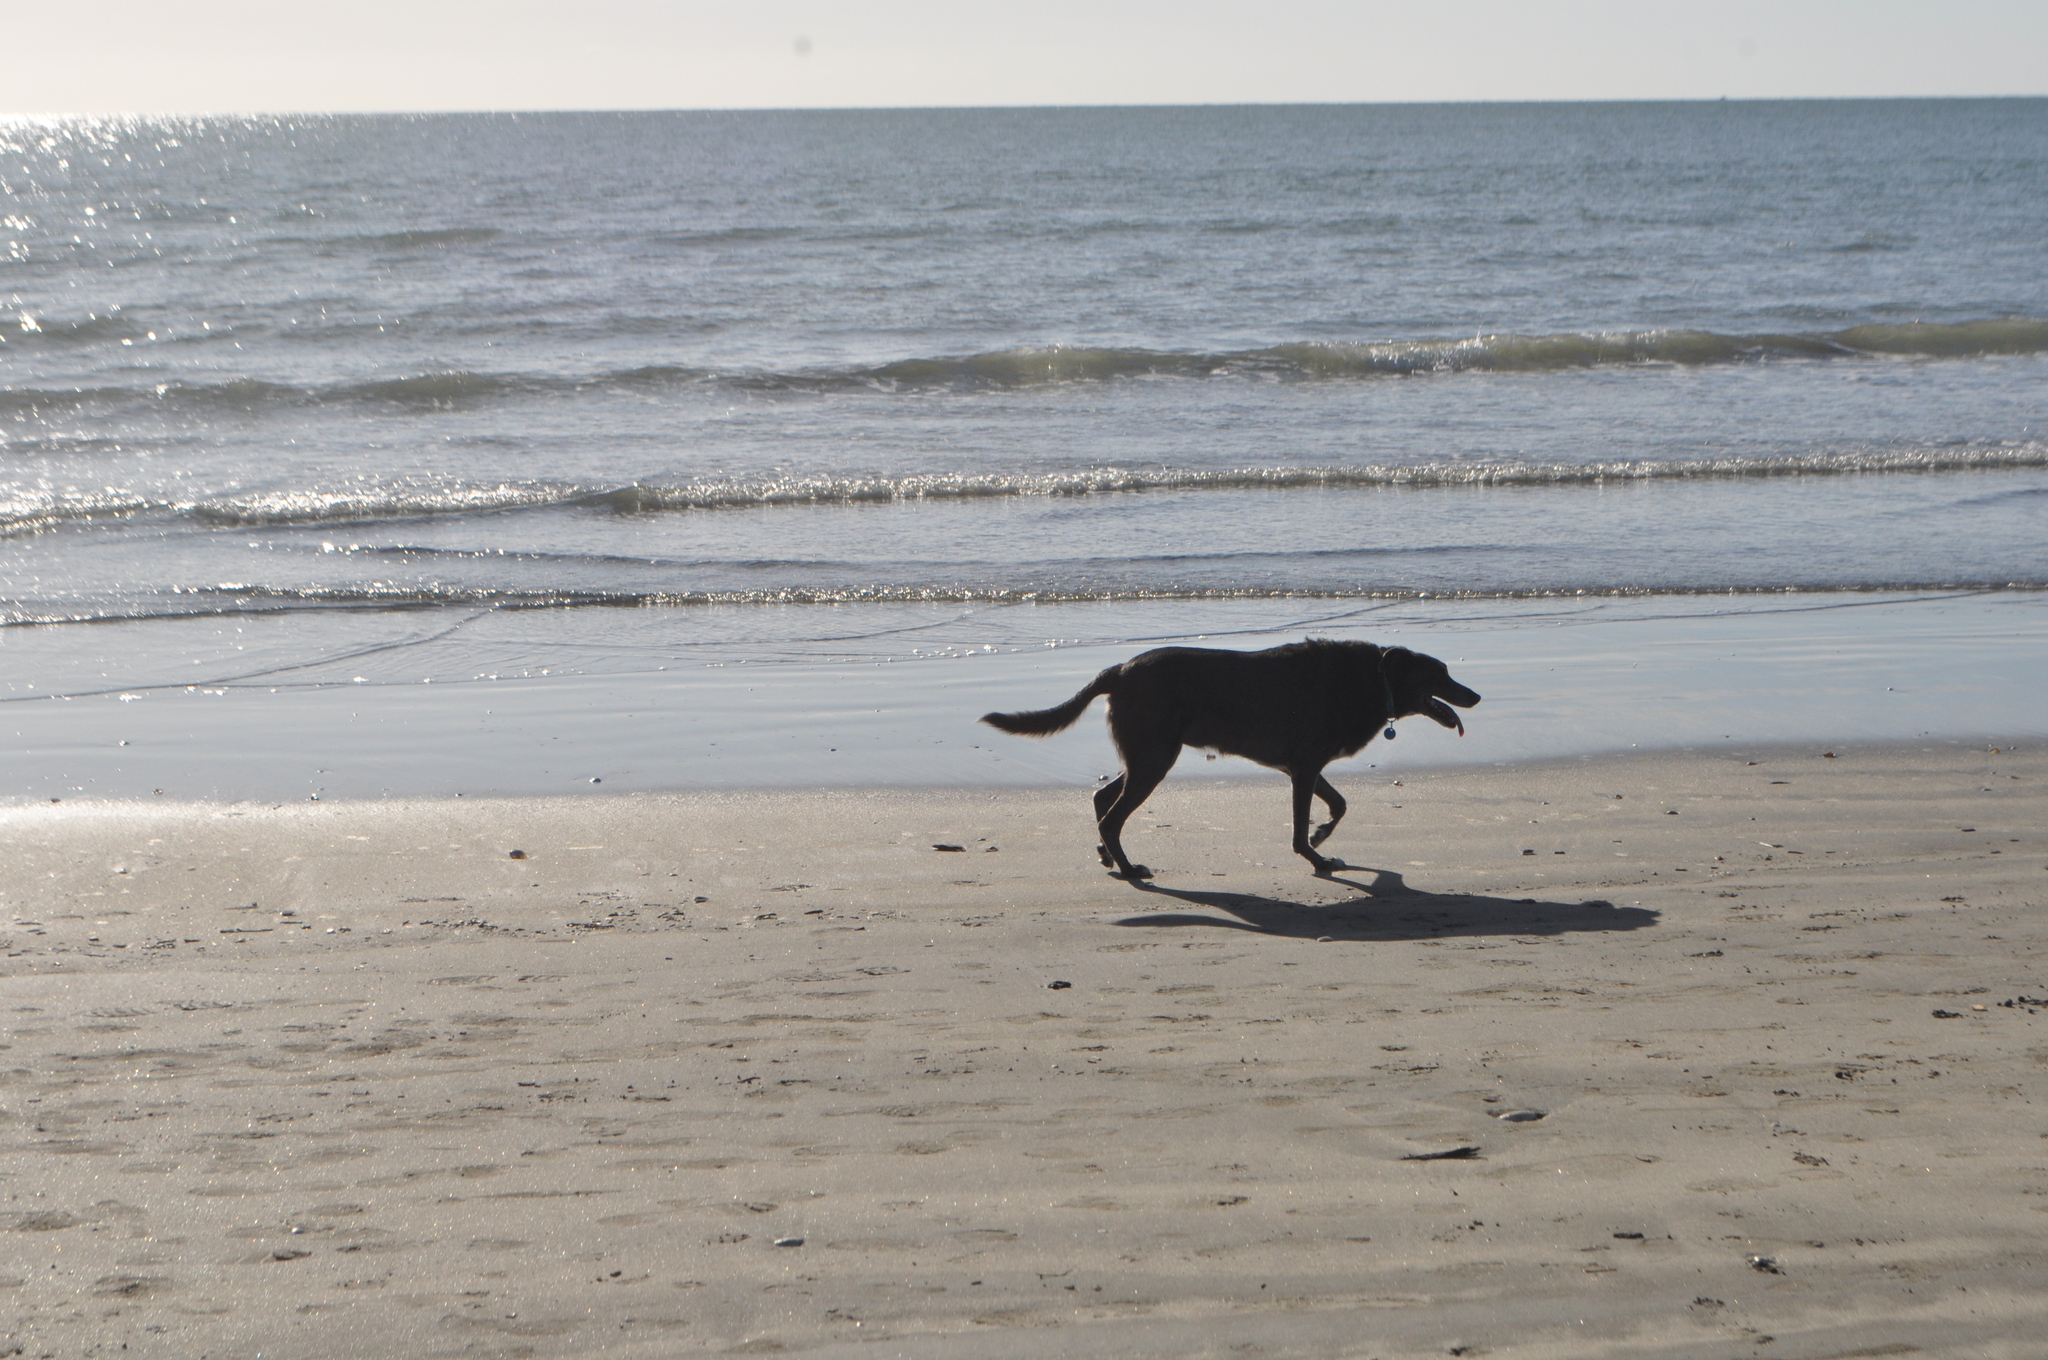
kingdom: Animalia
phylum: Chordata
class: Mammalia
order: Carnivora
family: Canidae
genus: Canis
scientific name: Canis lupus
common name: Gray wolf
